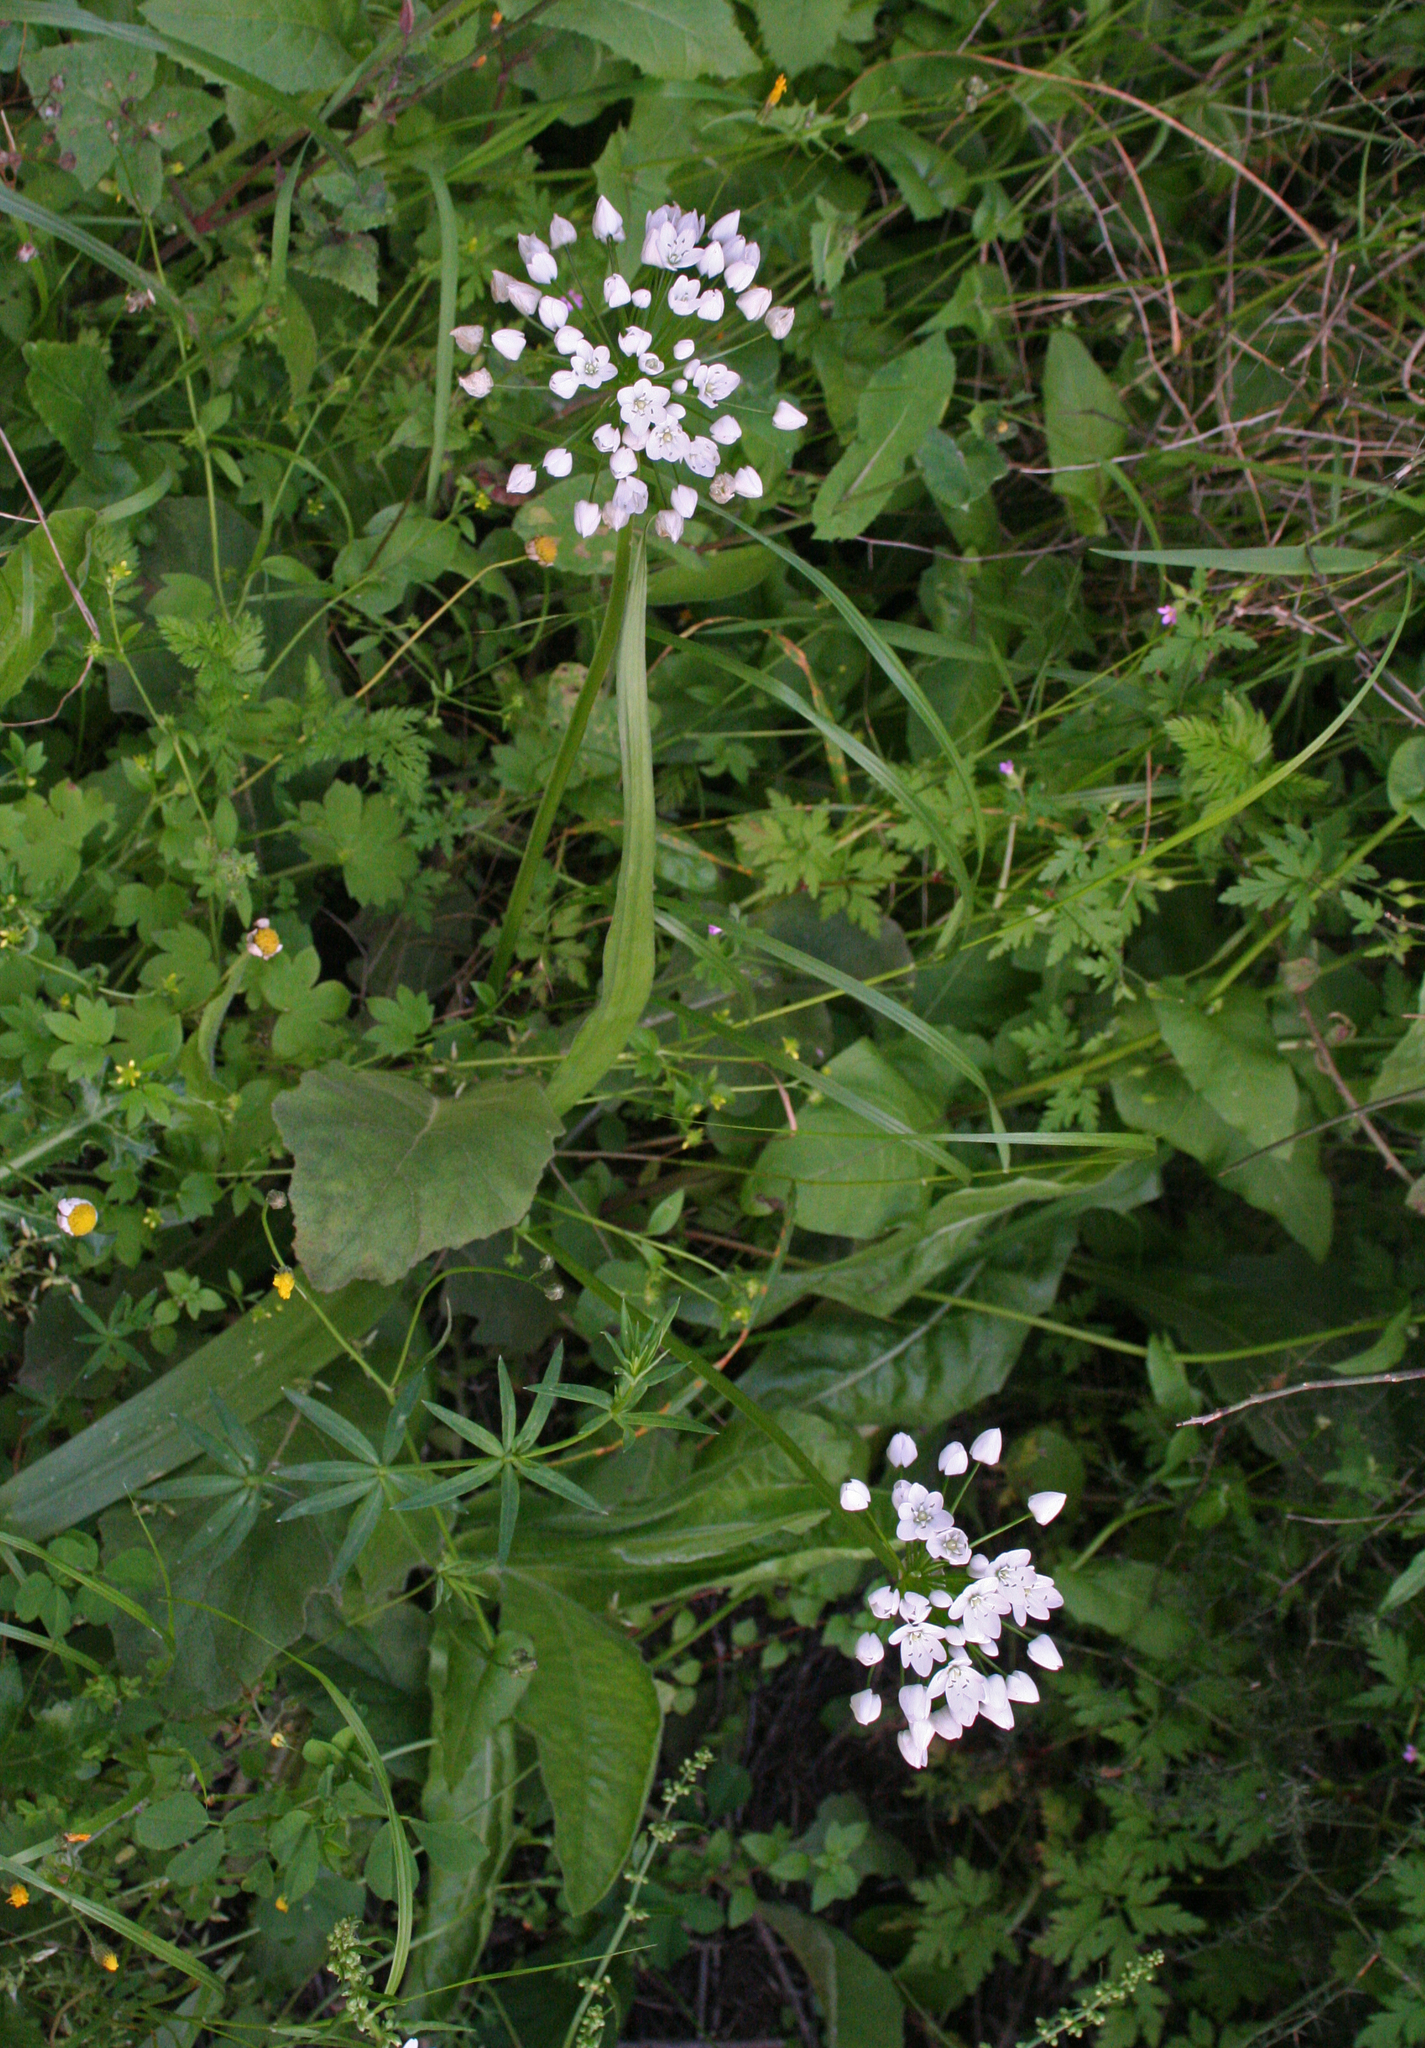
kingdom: Plantae
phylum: Tracheophyta
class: Liliopsida
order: Asparagales
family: Amaryllidaceae
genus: Allium
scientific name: Allium neapolitanum
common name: Neapolitan garlic
